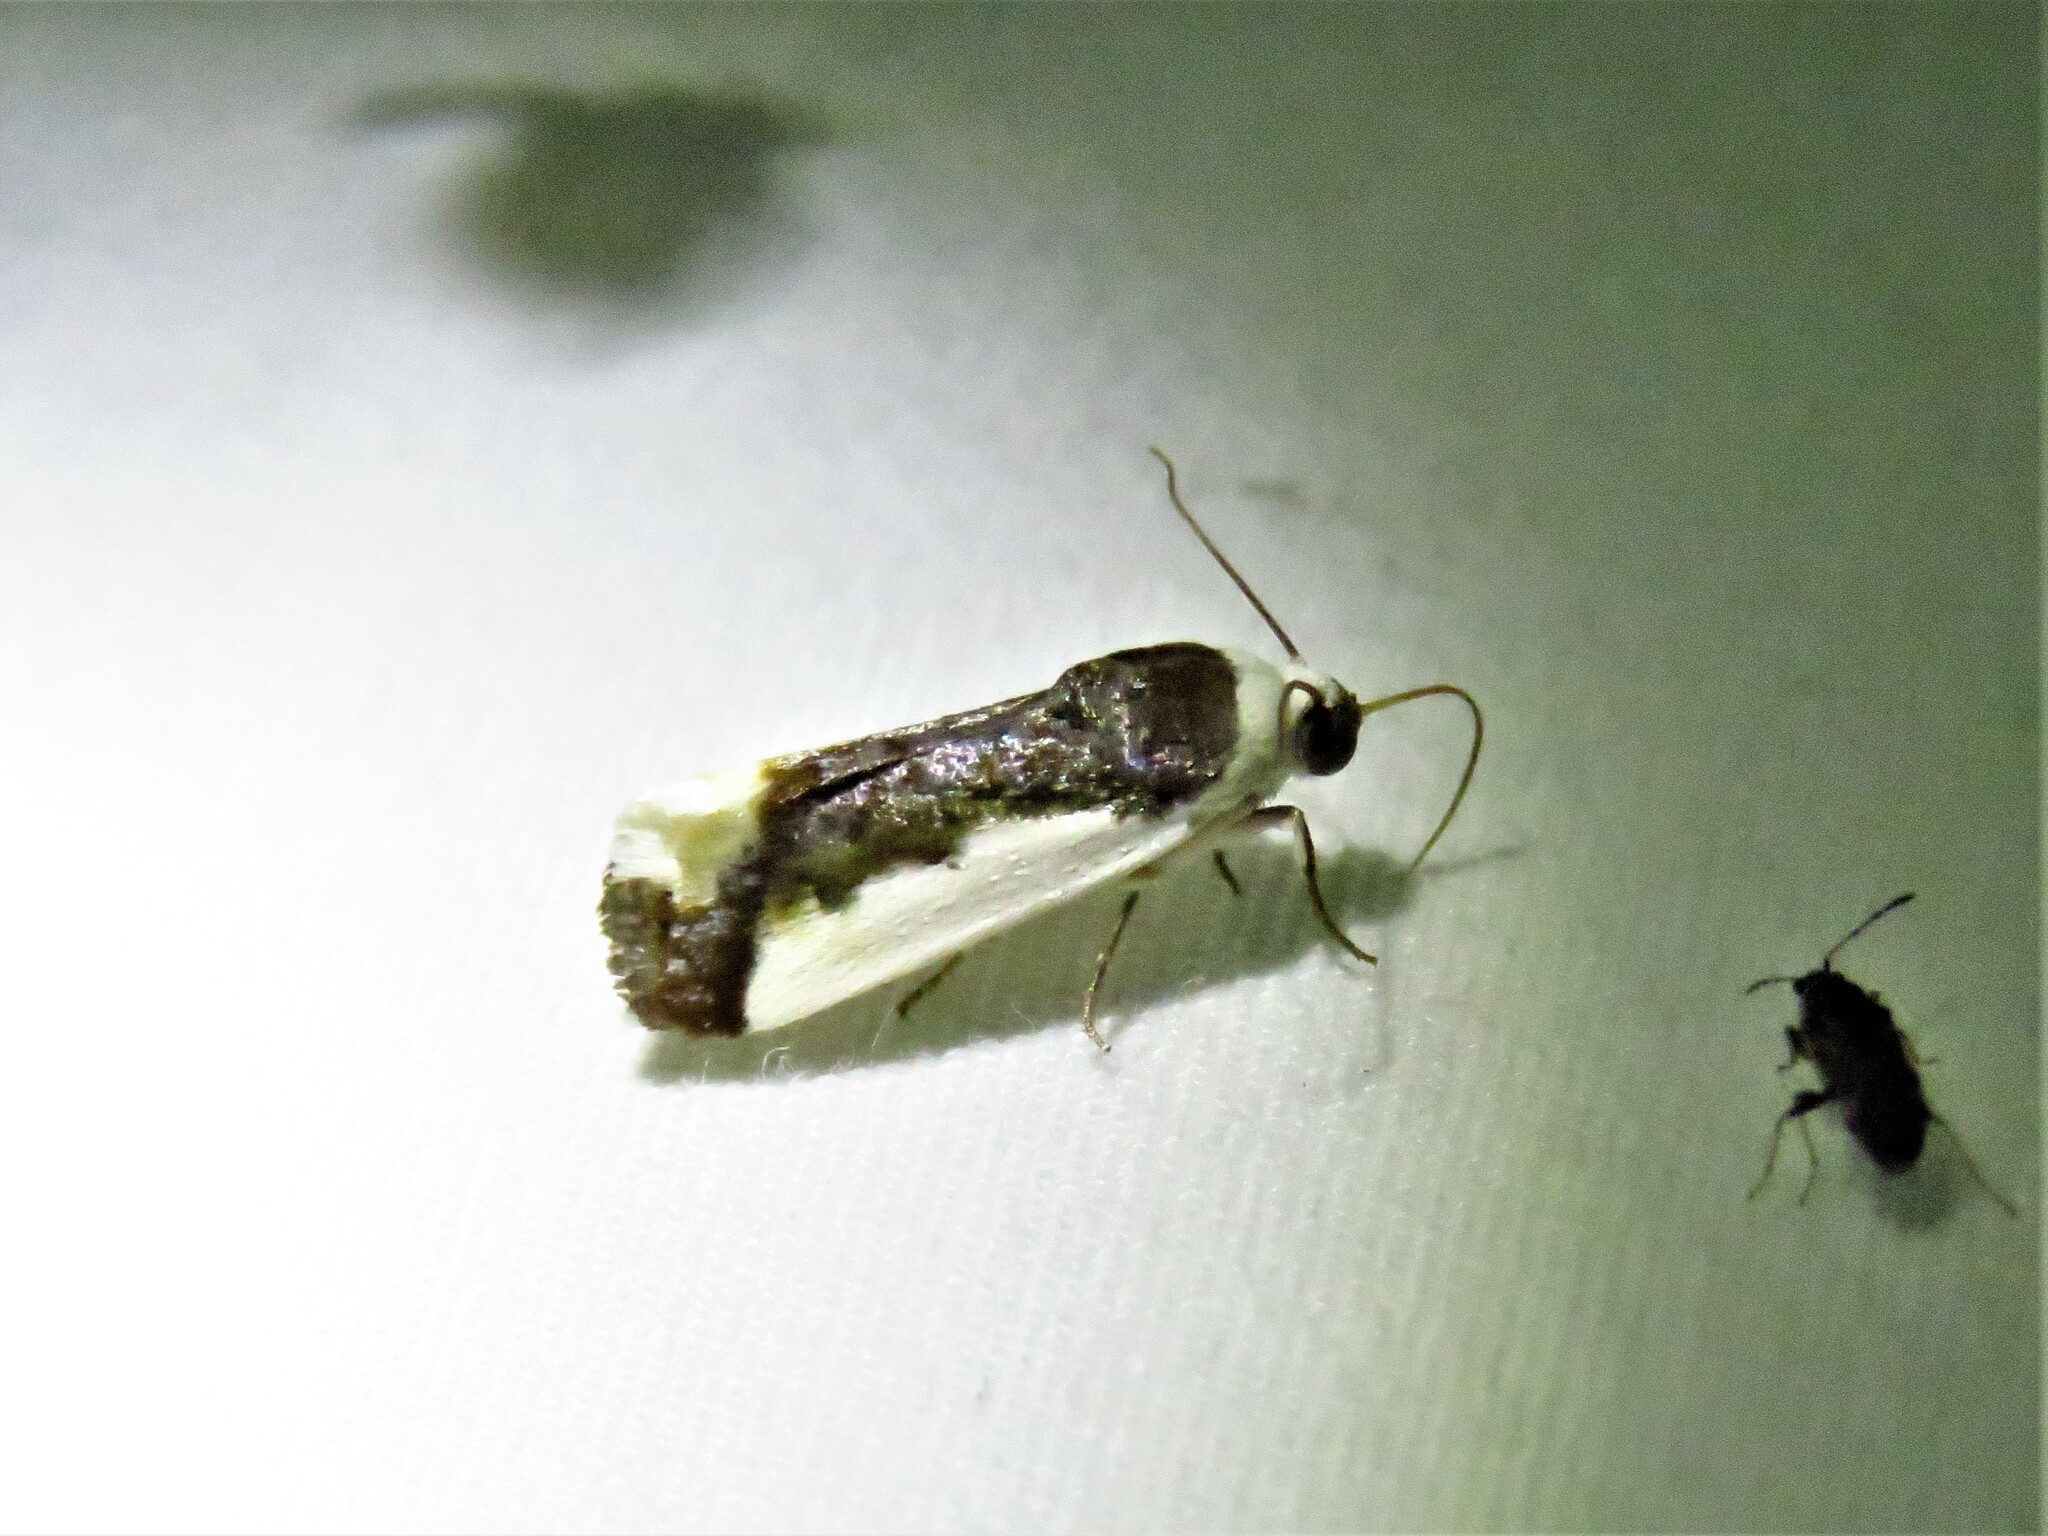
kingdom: Animalia
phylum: Arthropoda
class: Insecta
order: Lepidoptera
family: Noctuidae
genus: Acontia
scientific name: Acontia Tarache expolita
